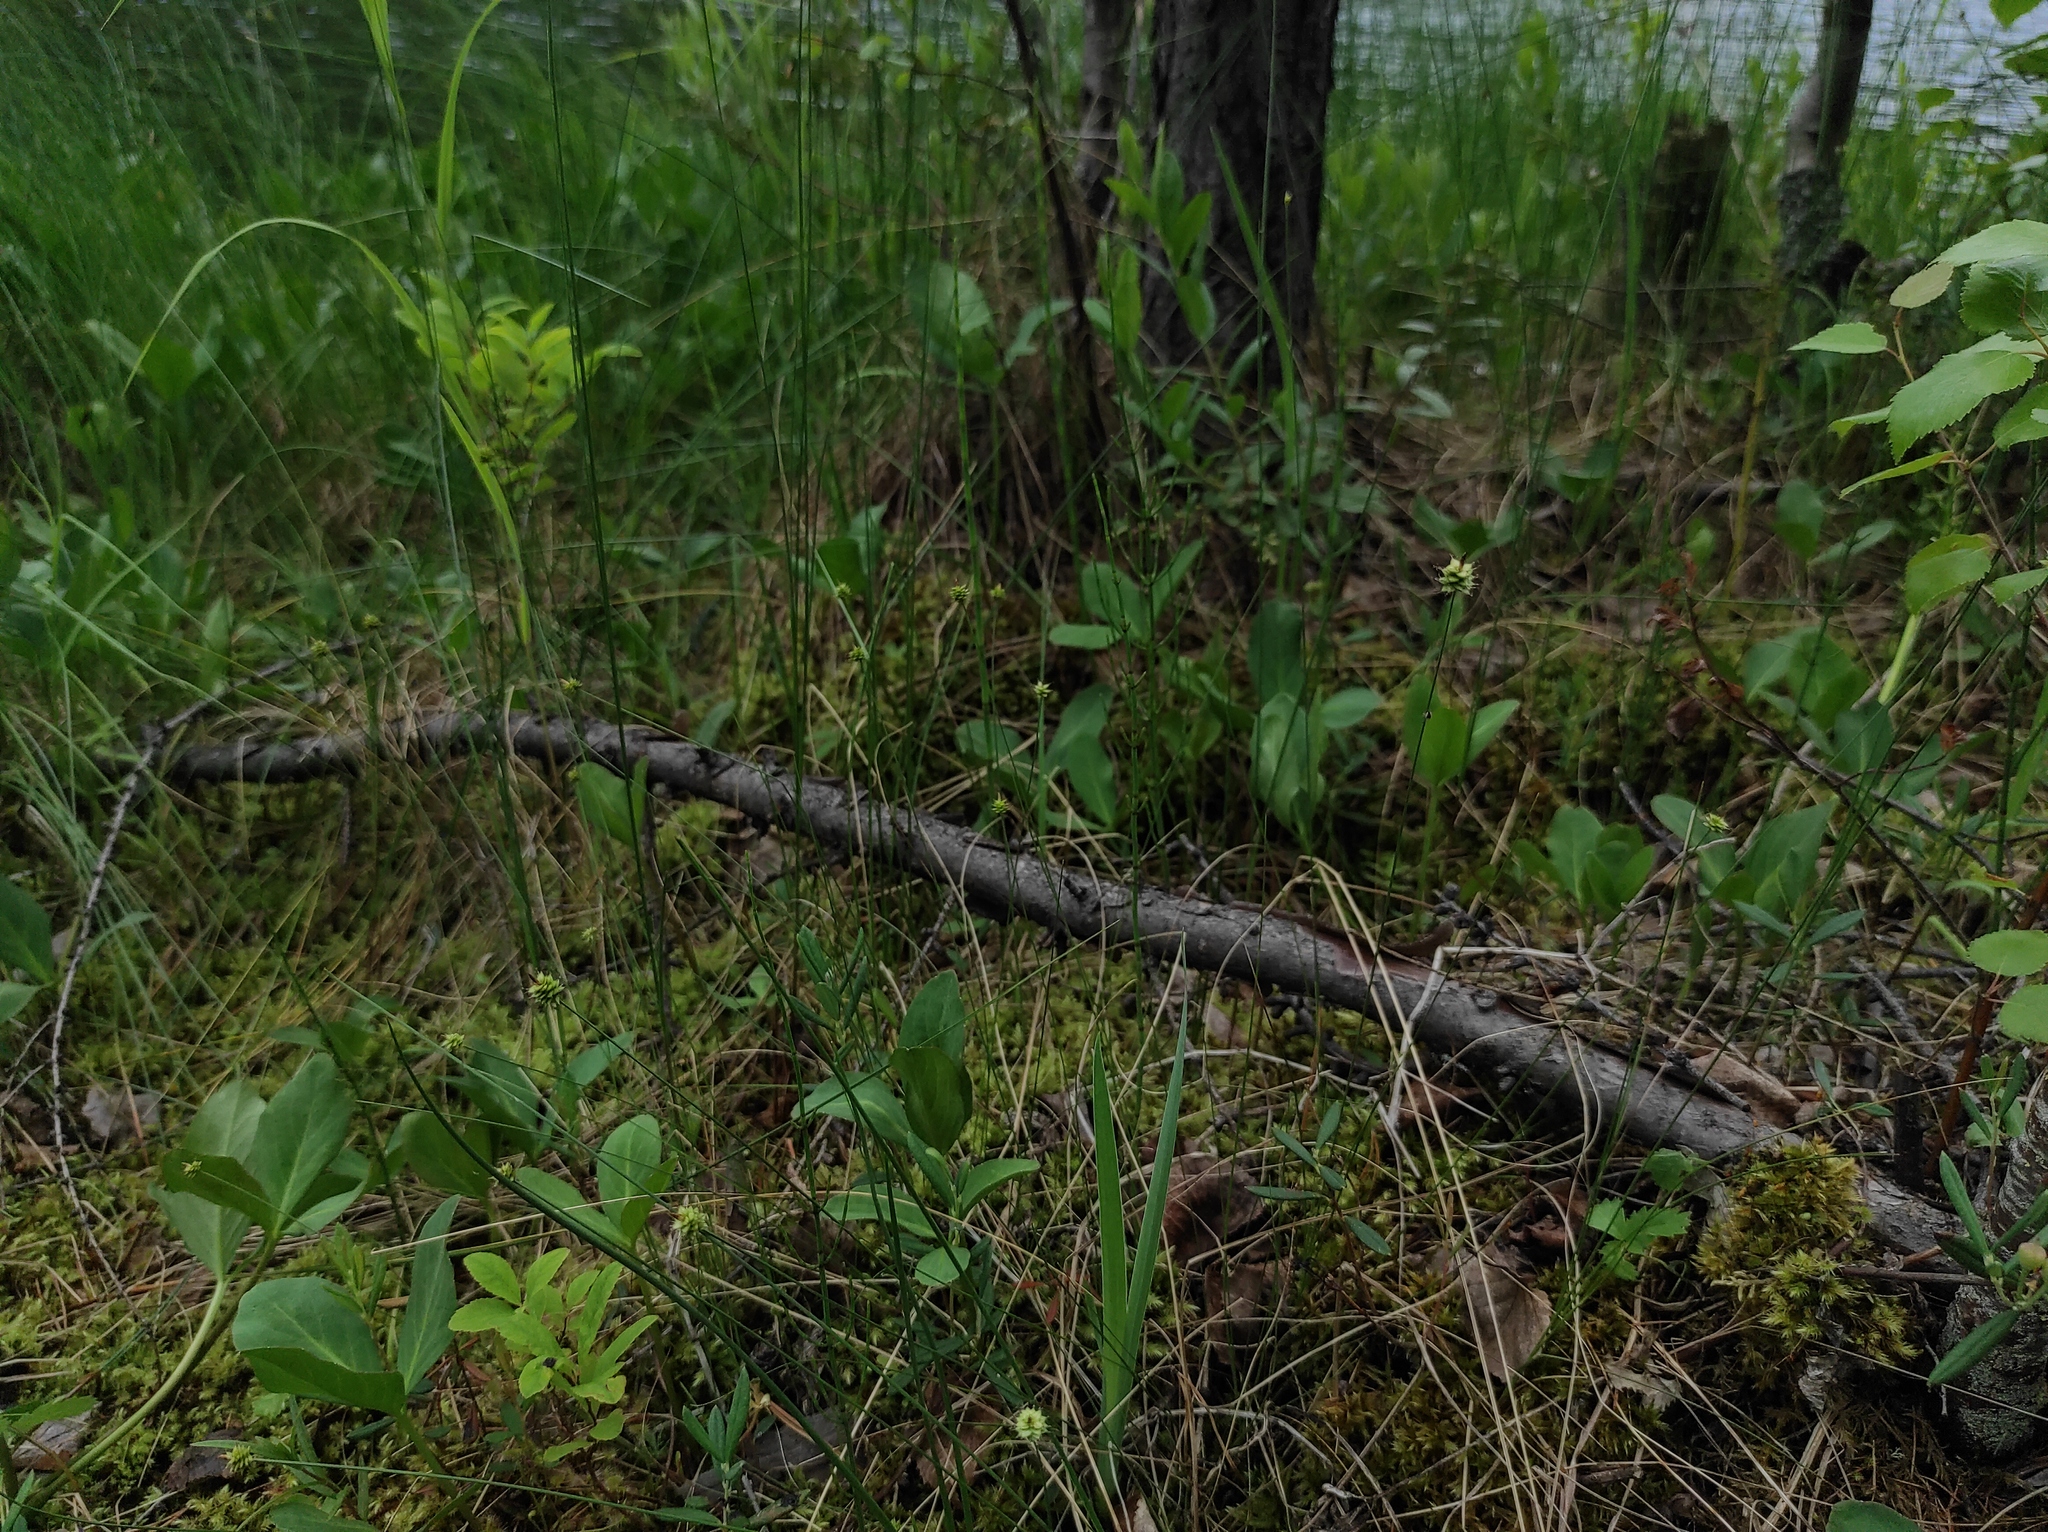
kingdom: Plantae
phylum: Tracheophyta
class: Magnoliopsida
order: Asterales
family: Menyanthaceae
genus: Menyanthes
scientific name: Menyanthes trifoliata
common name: Bogbean
